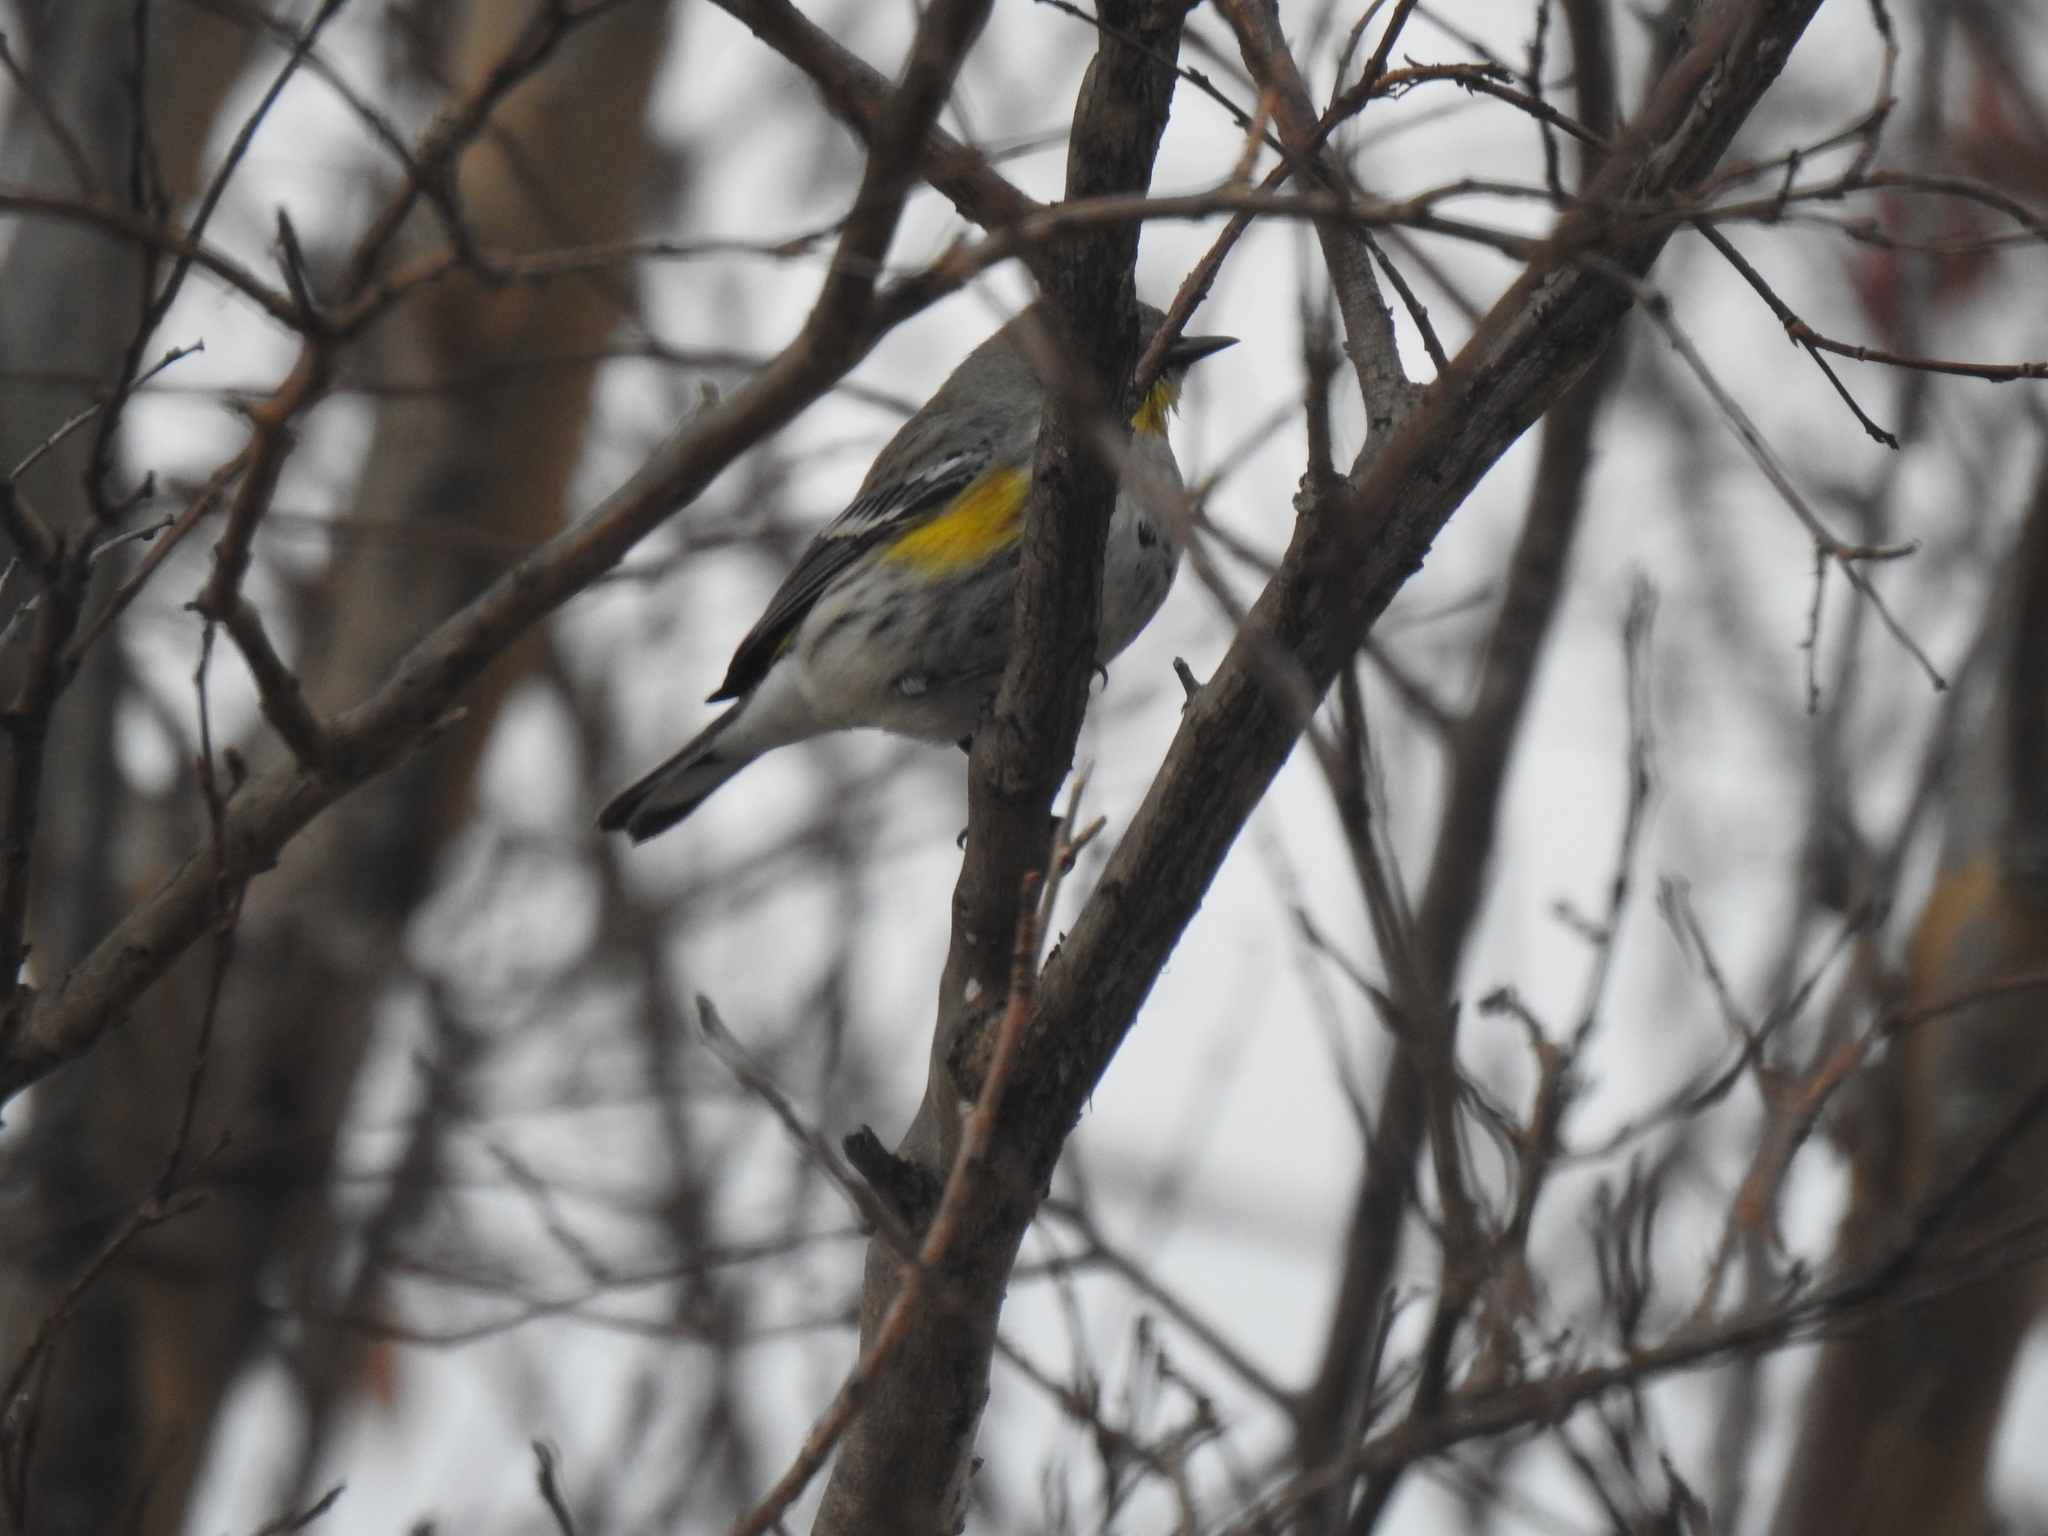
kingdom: Animalia
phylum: Chordata
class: Aves
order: Passeriformes
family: Parulidae
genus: Setophaga
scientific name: Setophaga coronata
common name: Myrtle warbler
